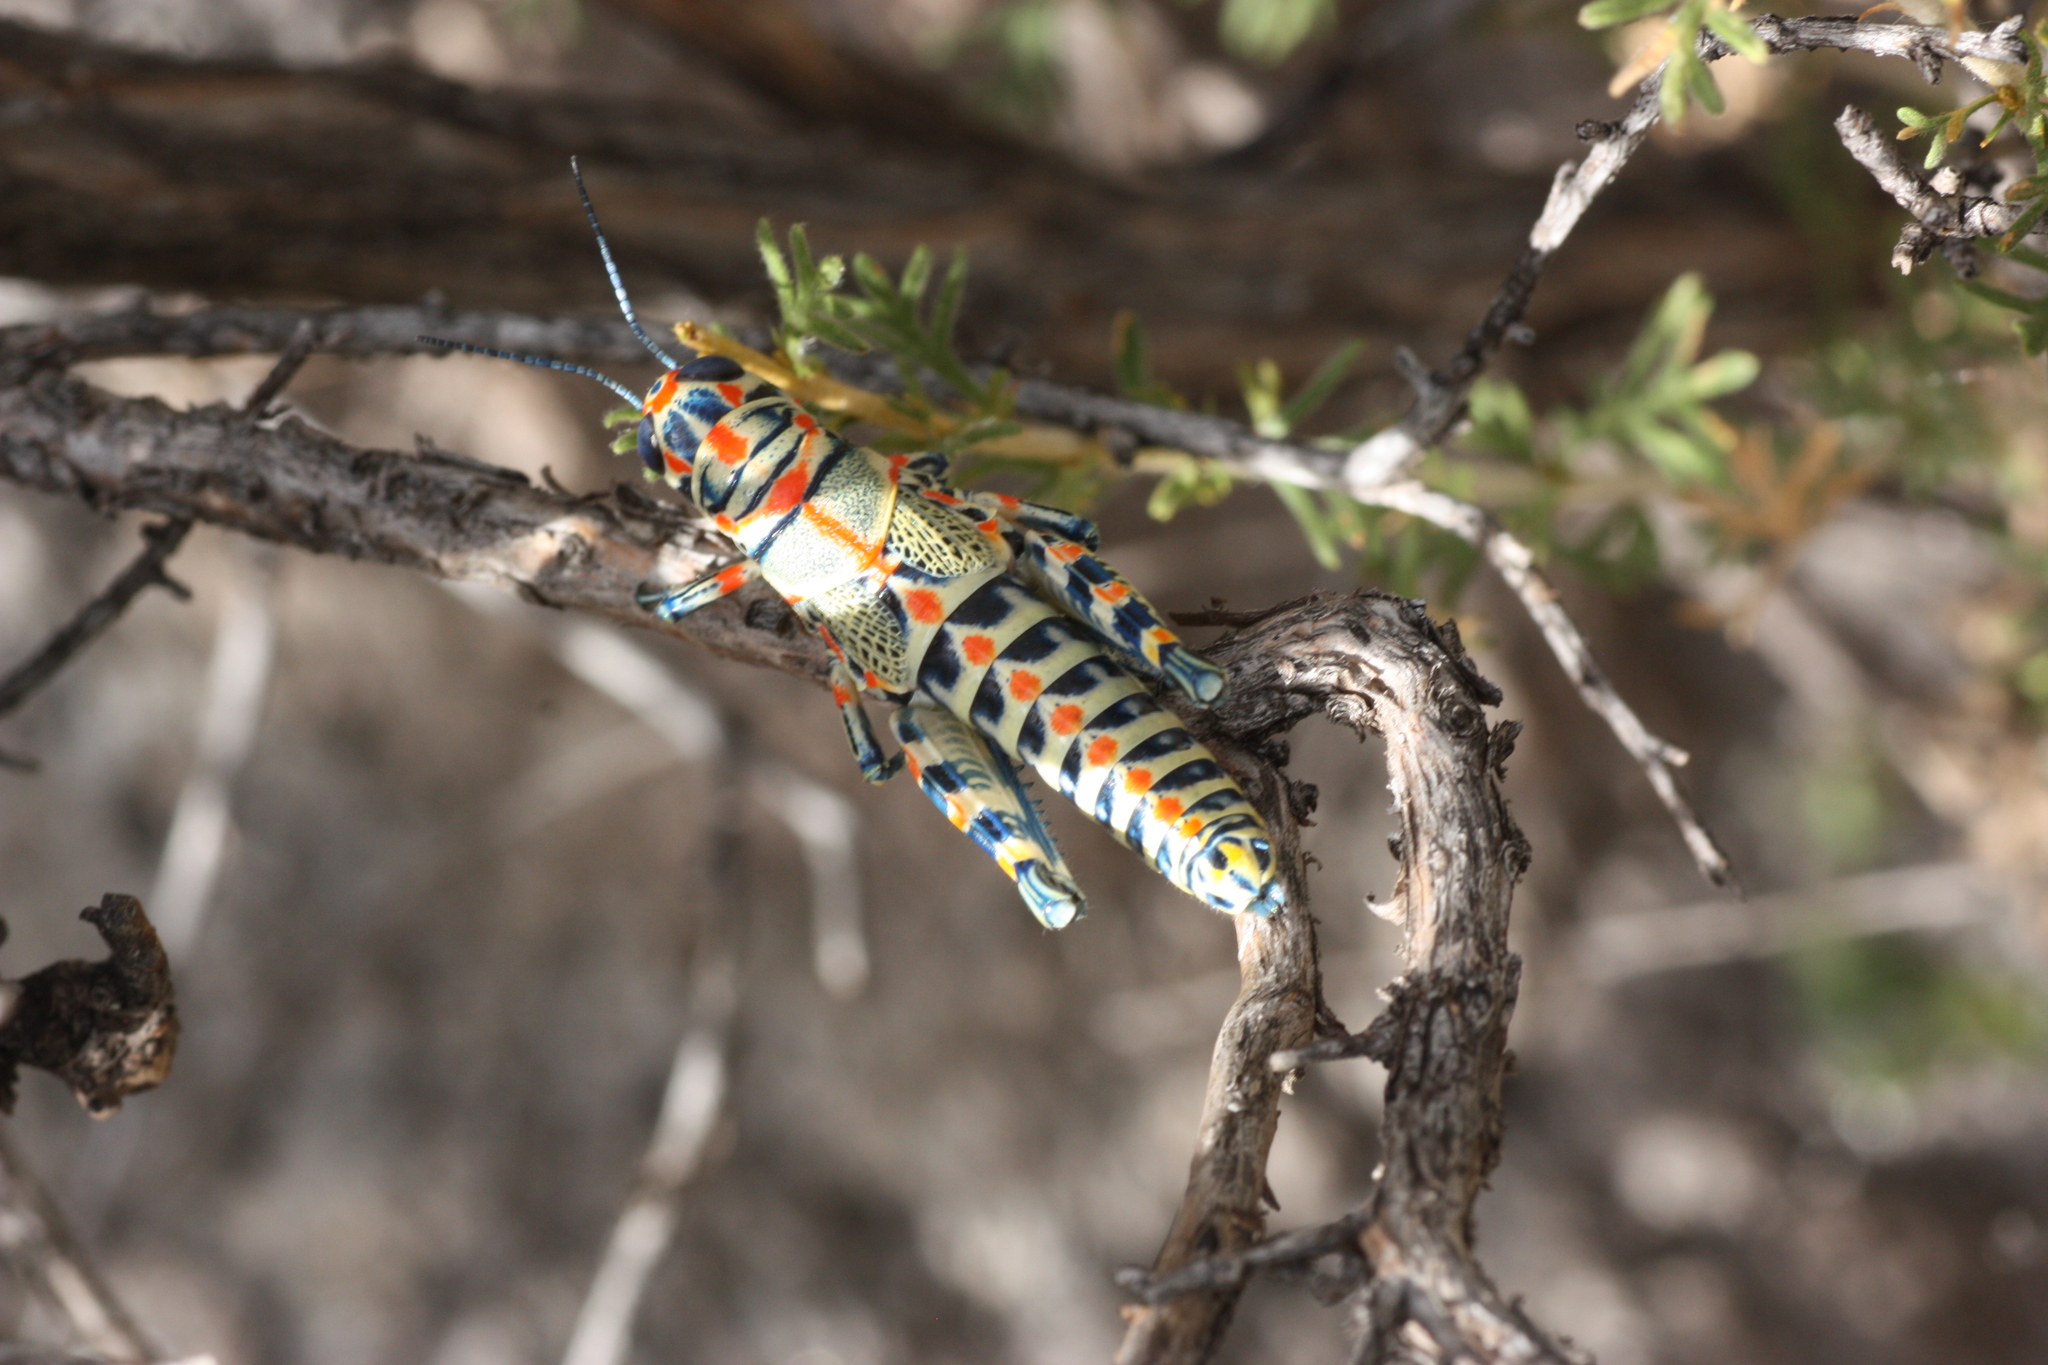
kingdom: Animalia
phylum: Arthropoda
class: Insecta
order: Orthoptera
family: Acrididae
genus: Dactylotum
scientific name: Dactylotum bicolor
